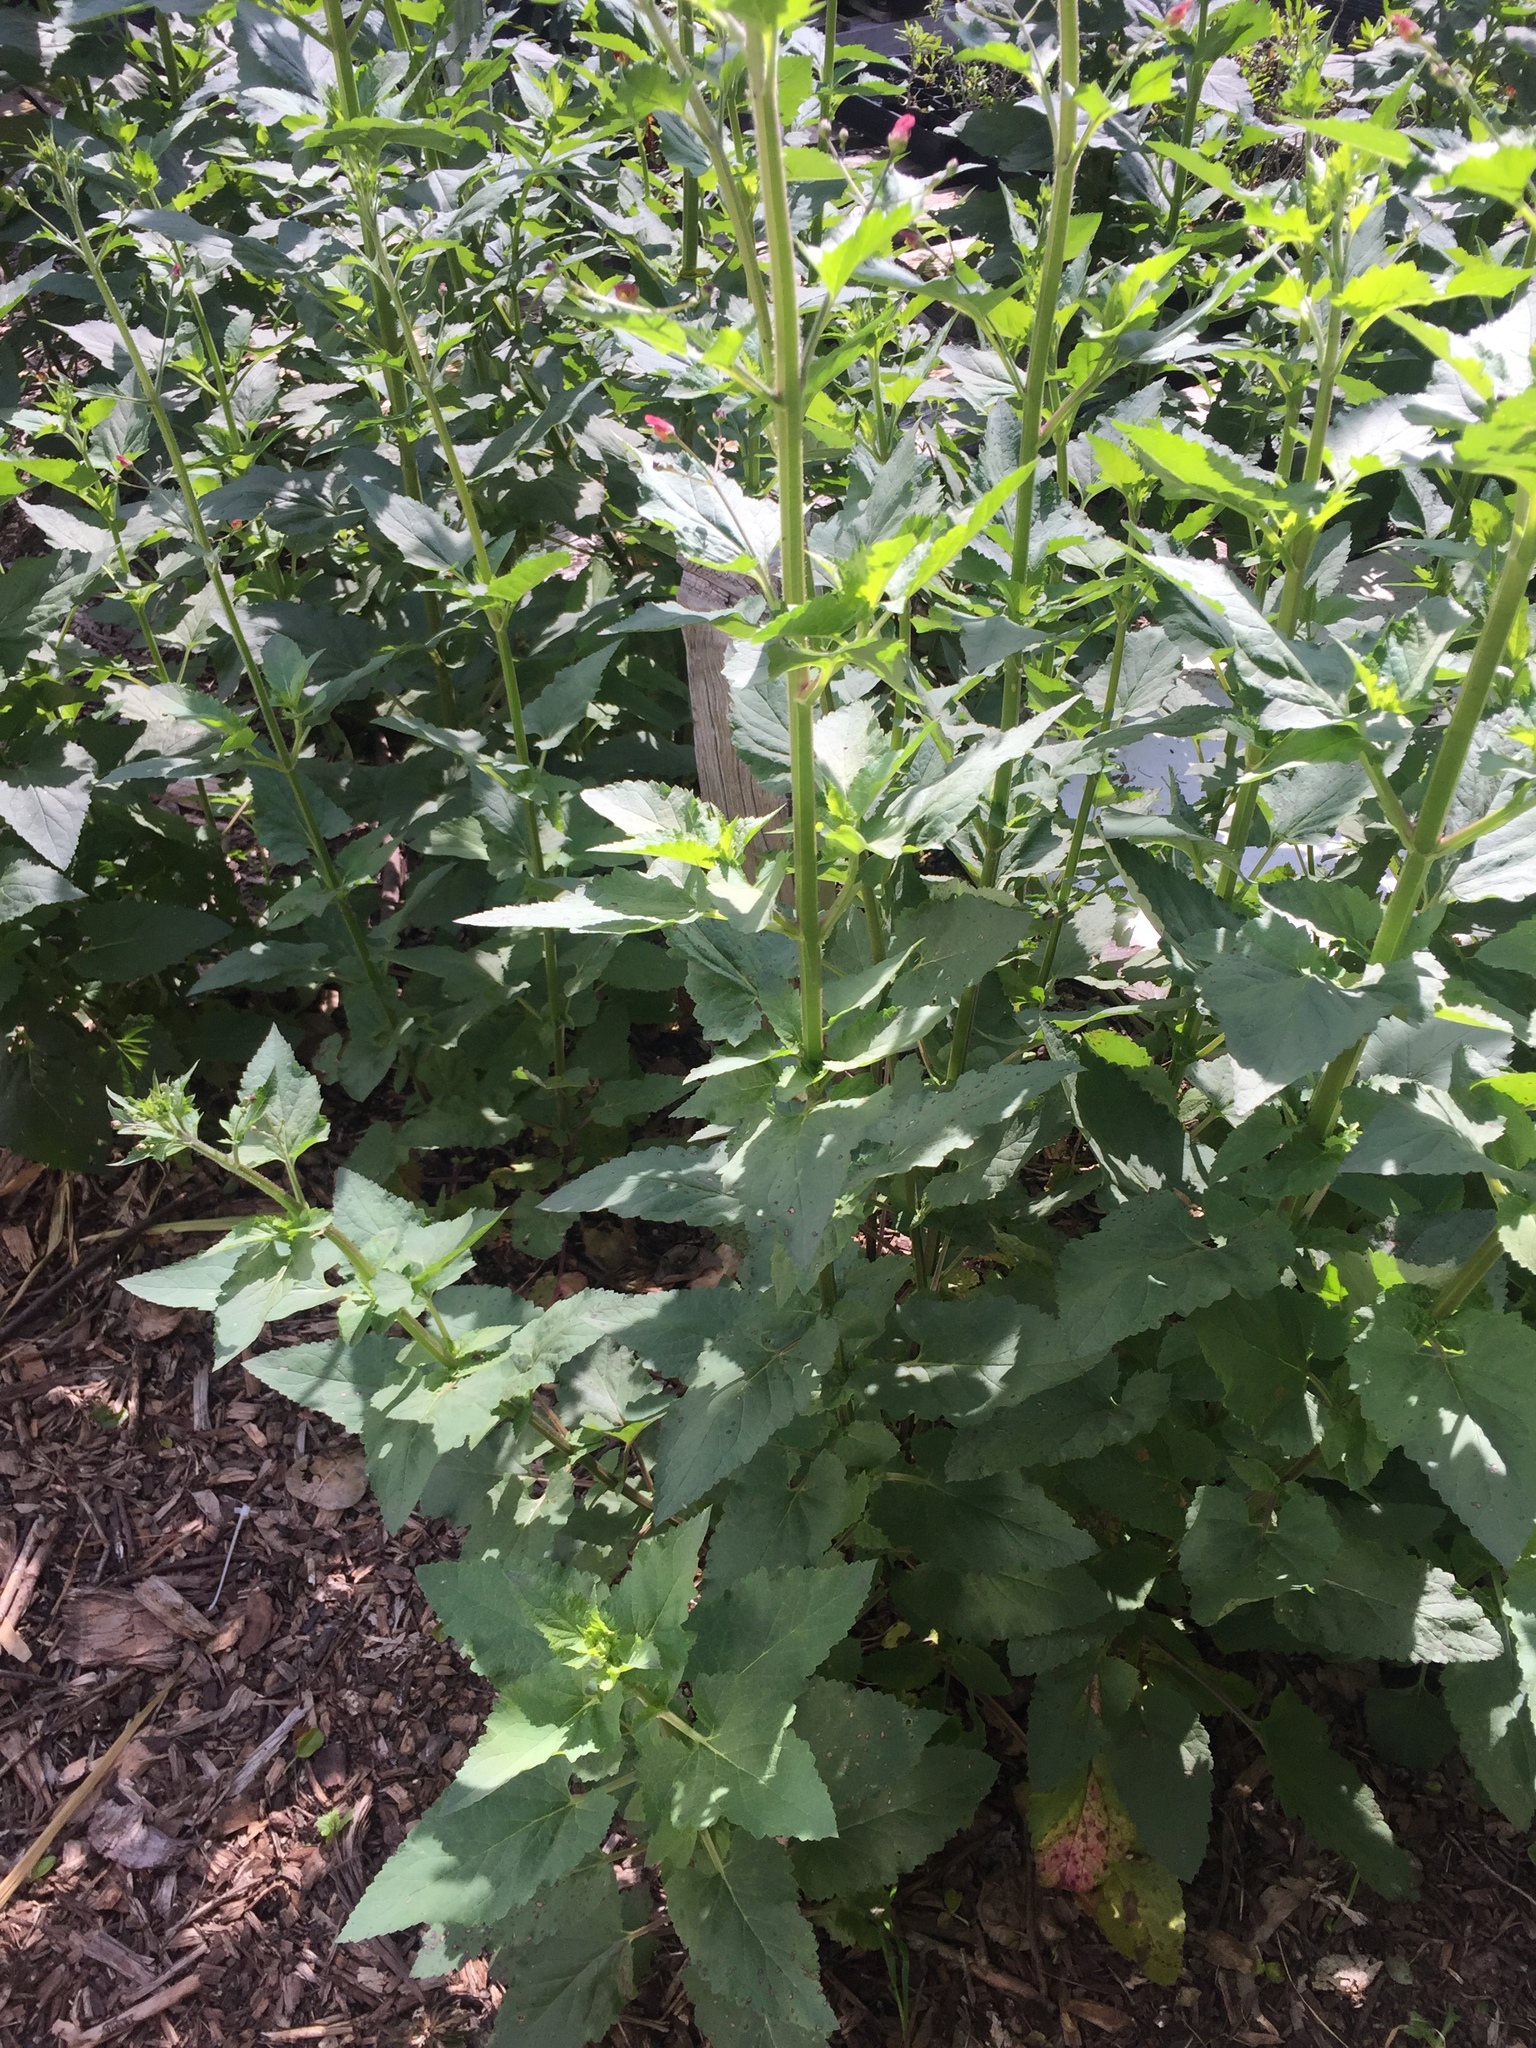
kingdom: Plantae
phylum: Tracheophyta
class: Magnoliopsida
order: Lamiales
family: Scrophulariaceae
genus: Scrophularia
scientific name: Scrophularia californica
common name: California figwort
